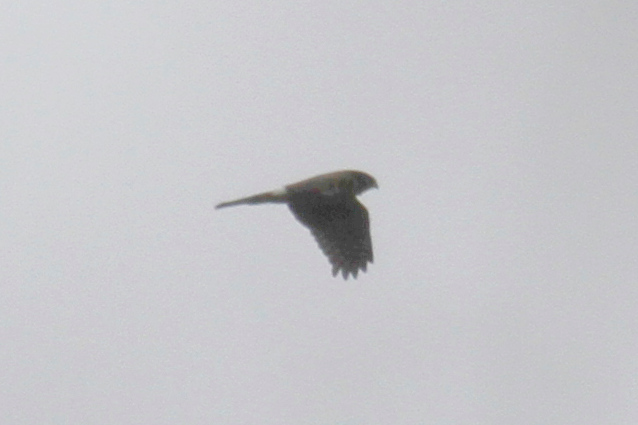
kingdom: Animalia
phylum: Chordata
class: Aves
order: Accipitriformes
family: Accipitridae
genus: Circus
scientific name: Circus cyaneus
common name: Hen harrier
